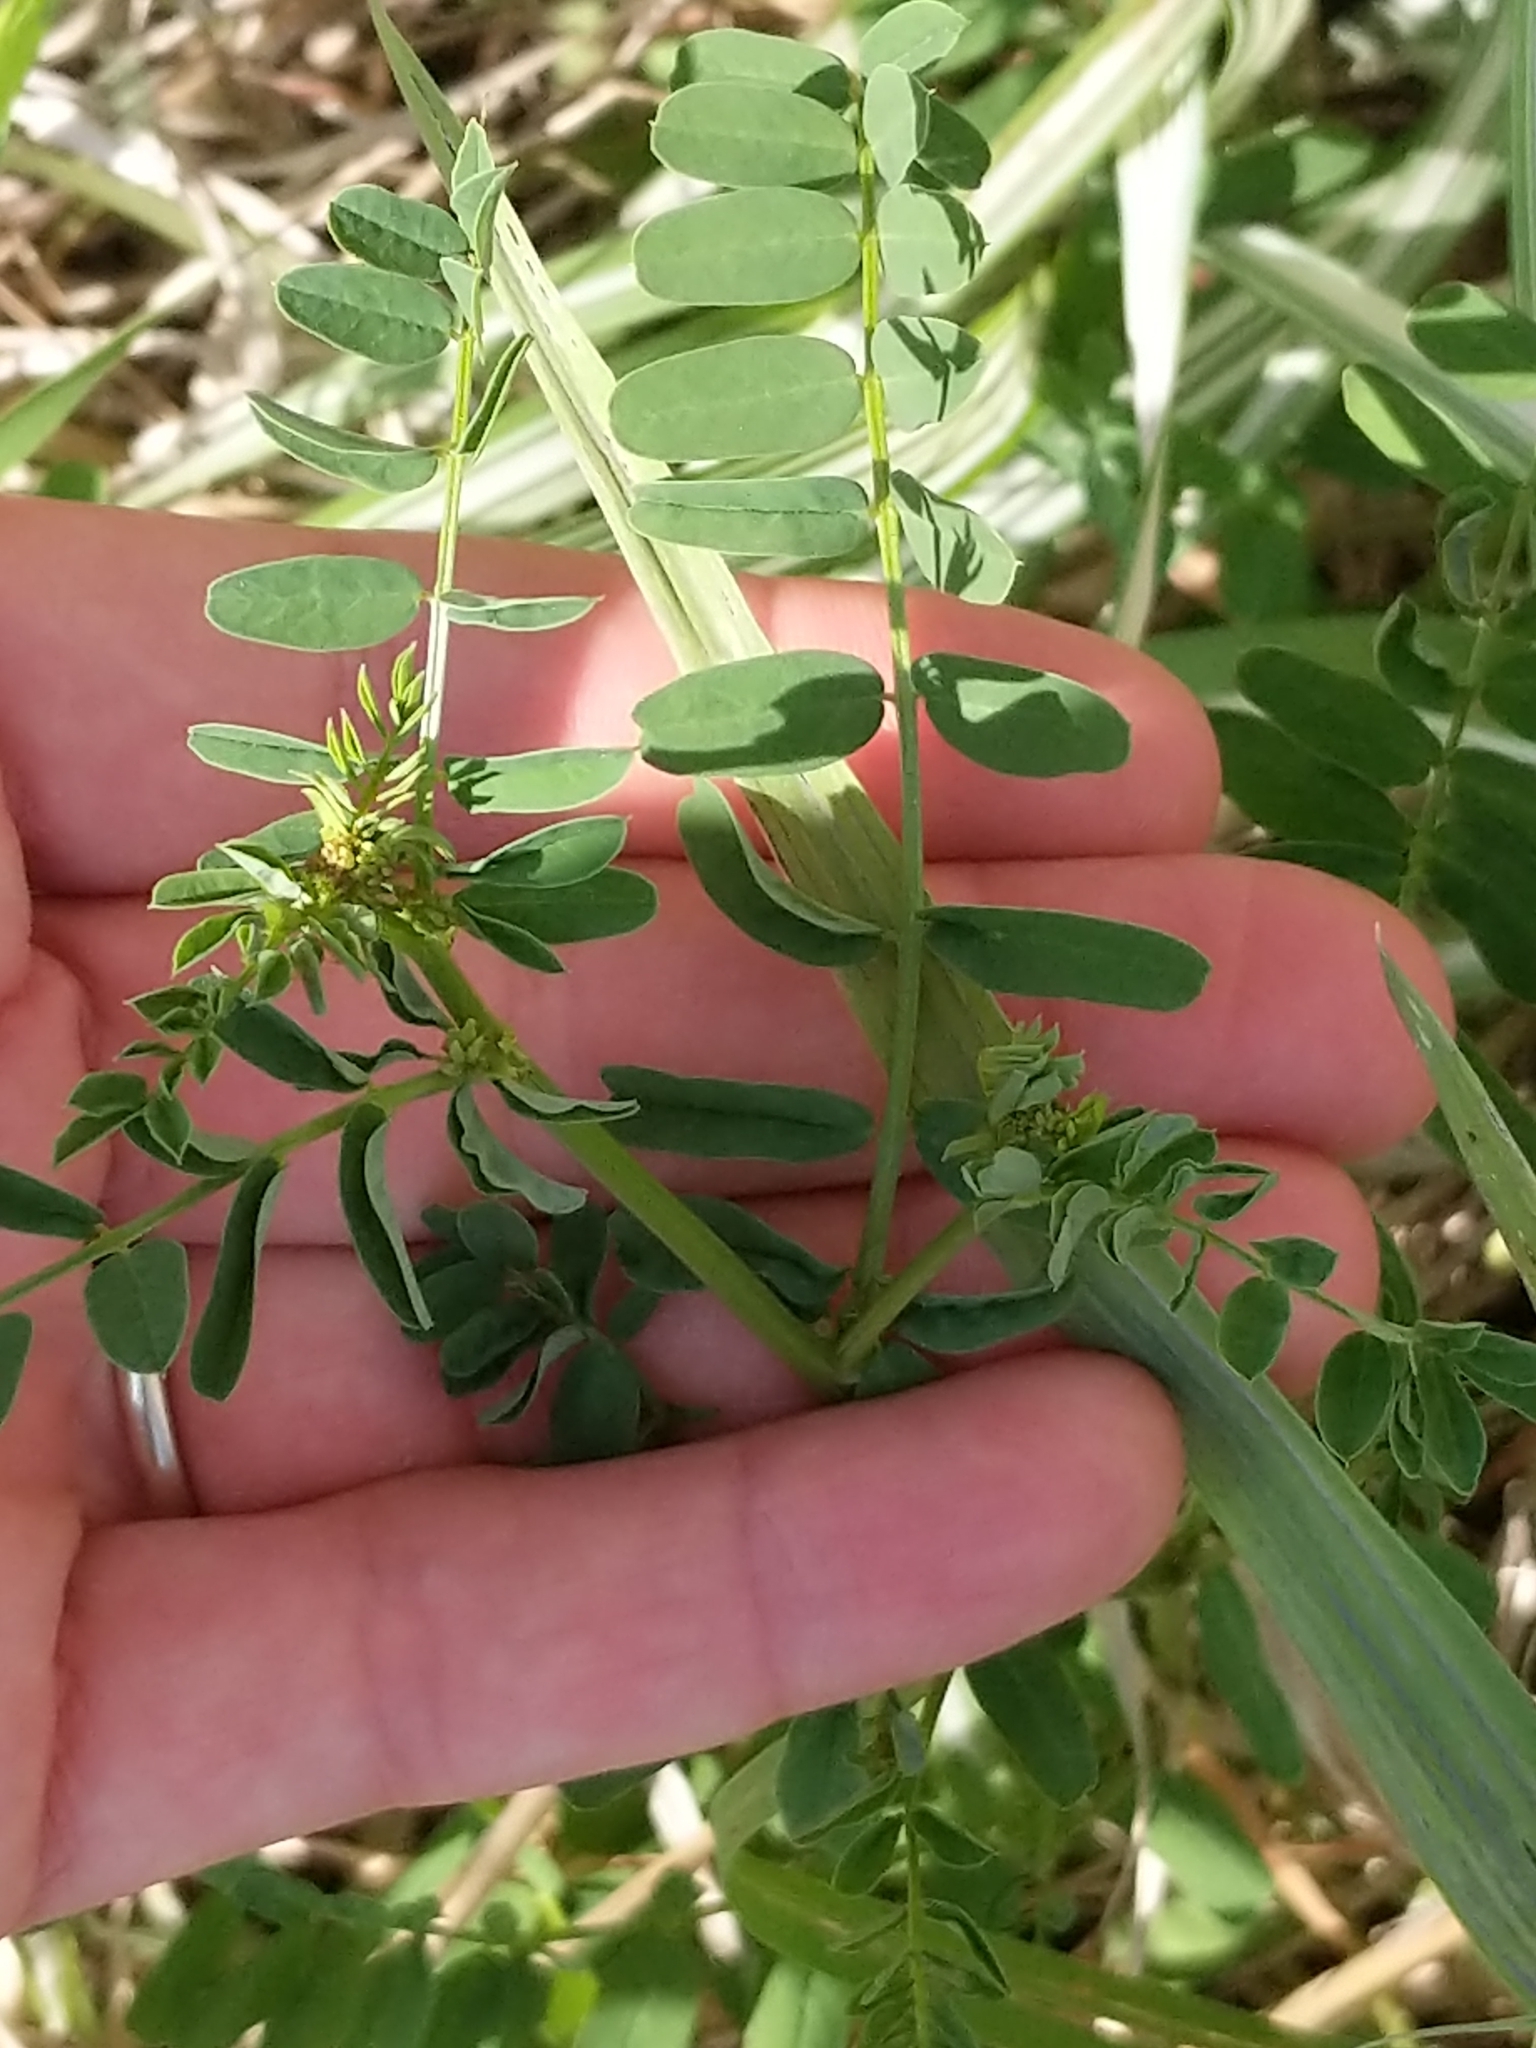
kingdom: Plantae
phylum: Tracheophyta
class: Magnoliopsida
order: Fabales
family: Fabaceae
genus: Coronilla
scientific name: Coronilla varia
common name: Crownvetch
